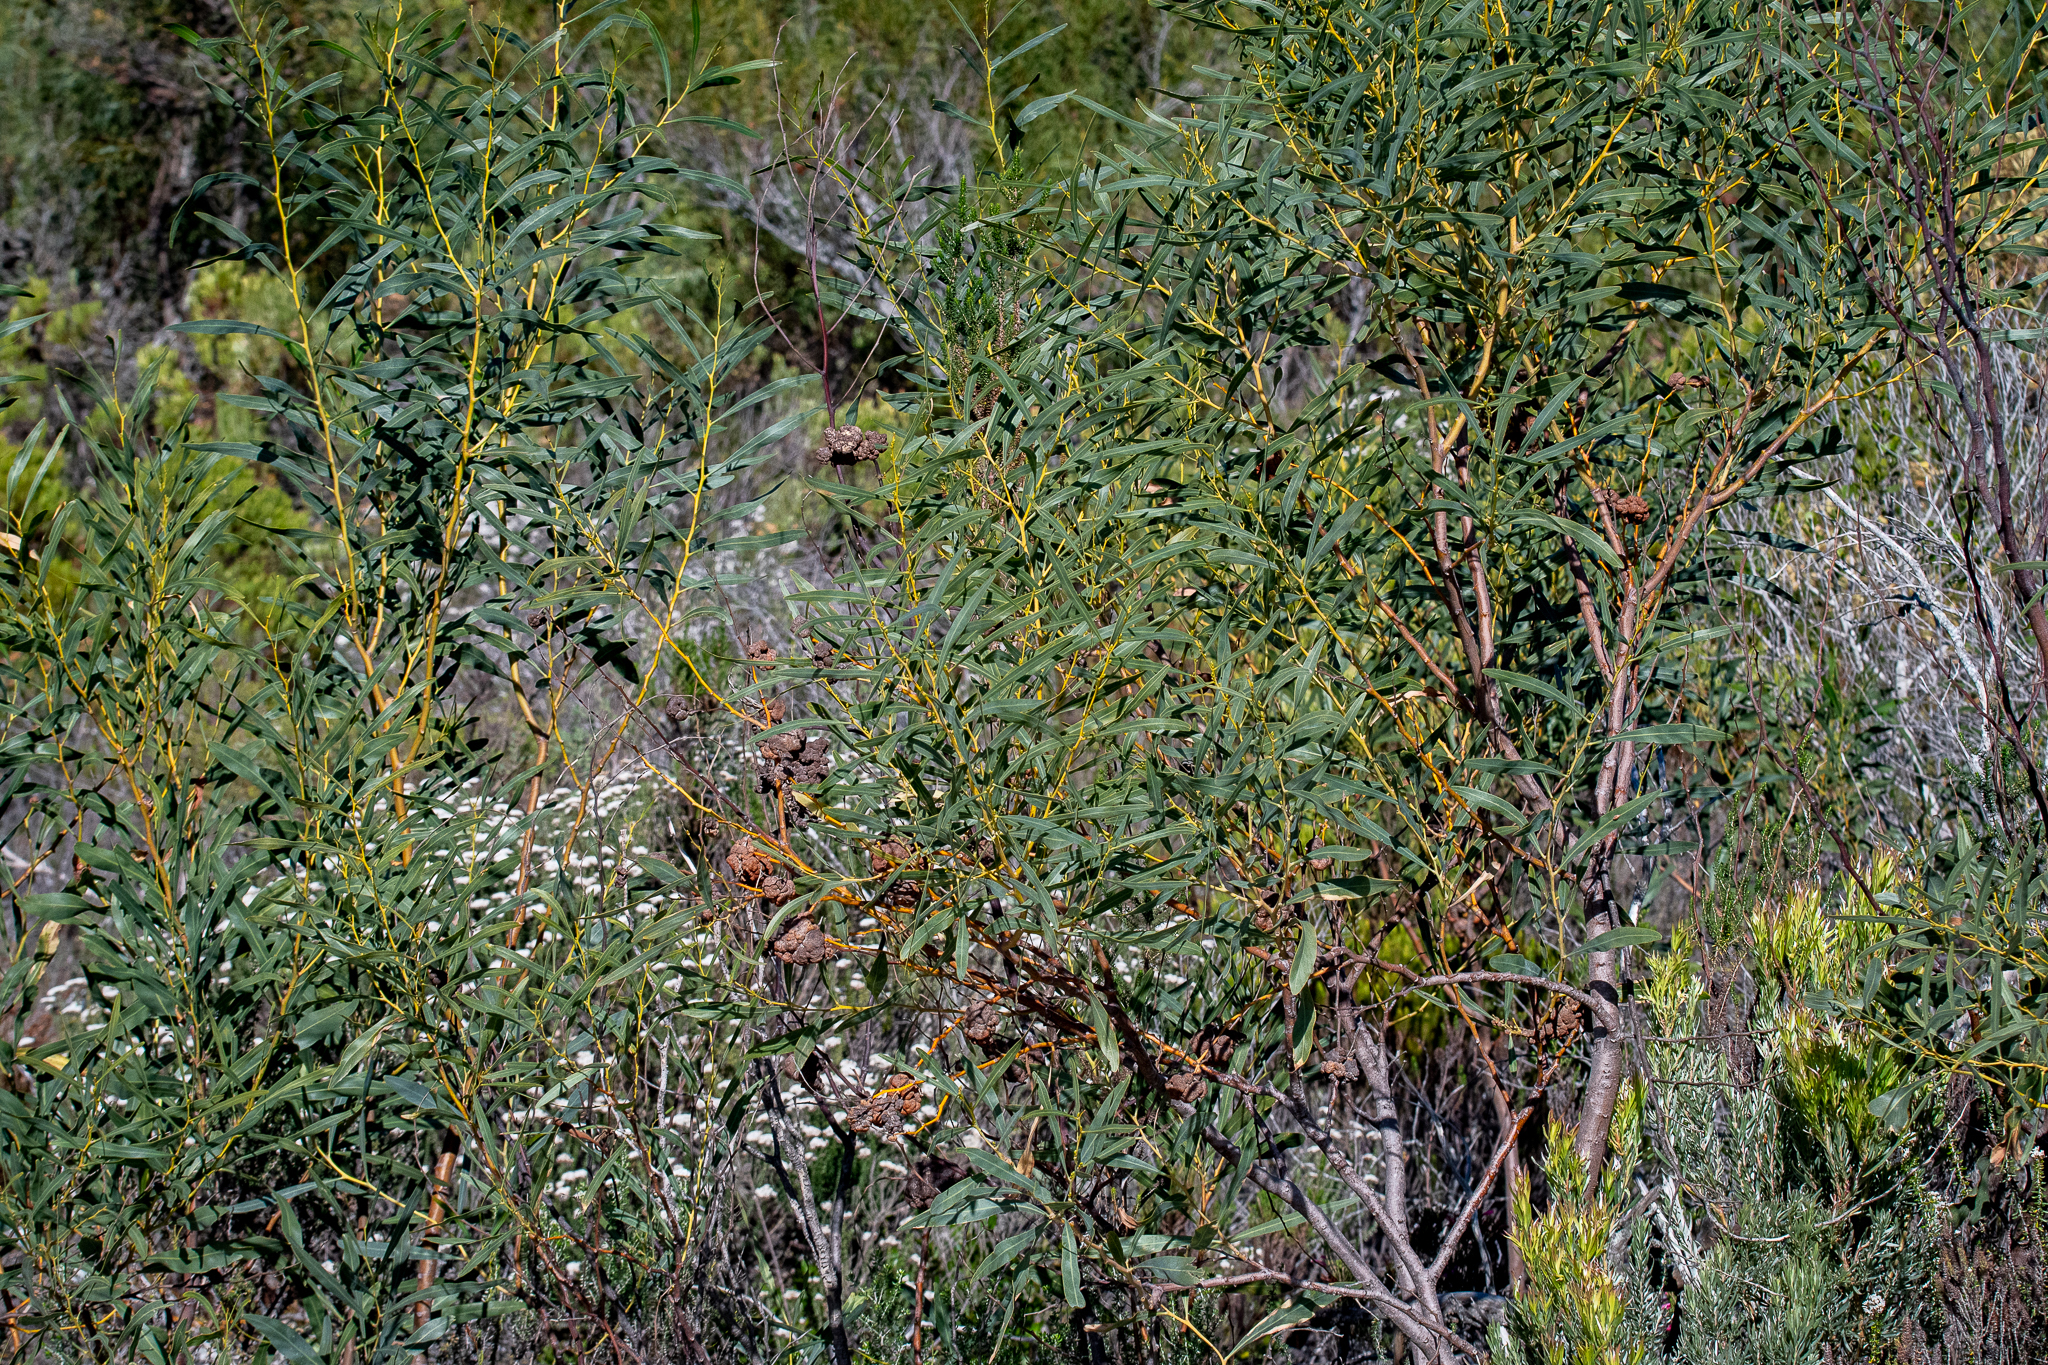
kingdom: Plantae
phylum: Tracheophyta
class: Magnoliopsida
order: Fabales
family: Fabaceae
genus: Acacia
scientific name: Acacia saligna
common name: Orange wattle
